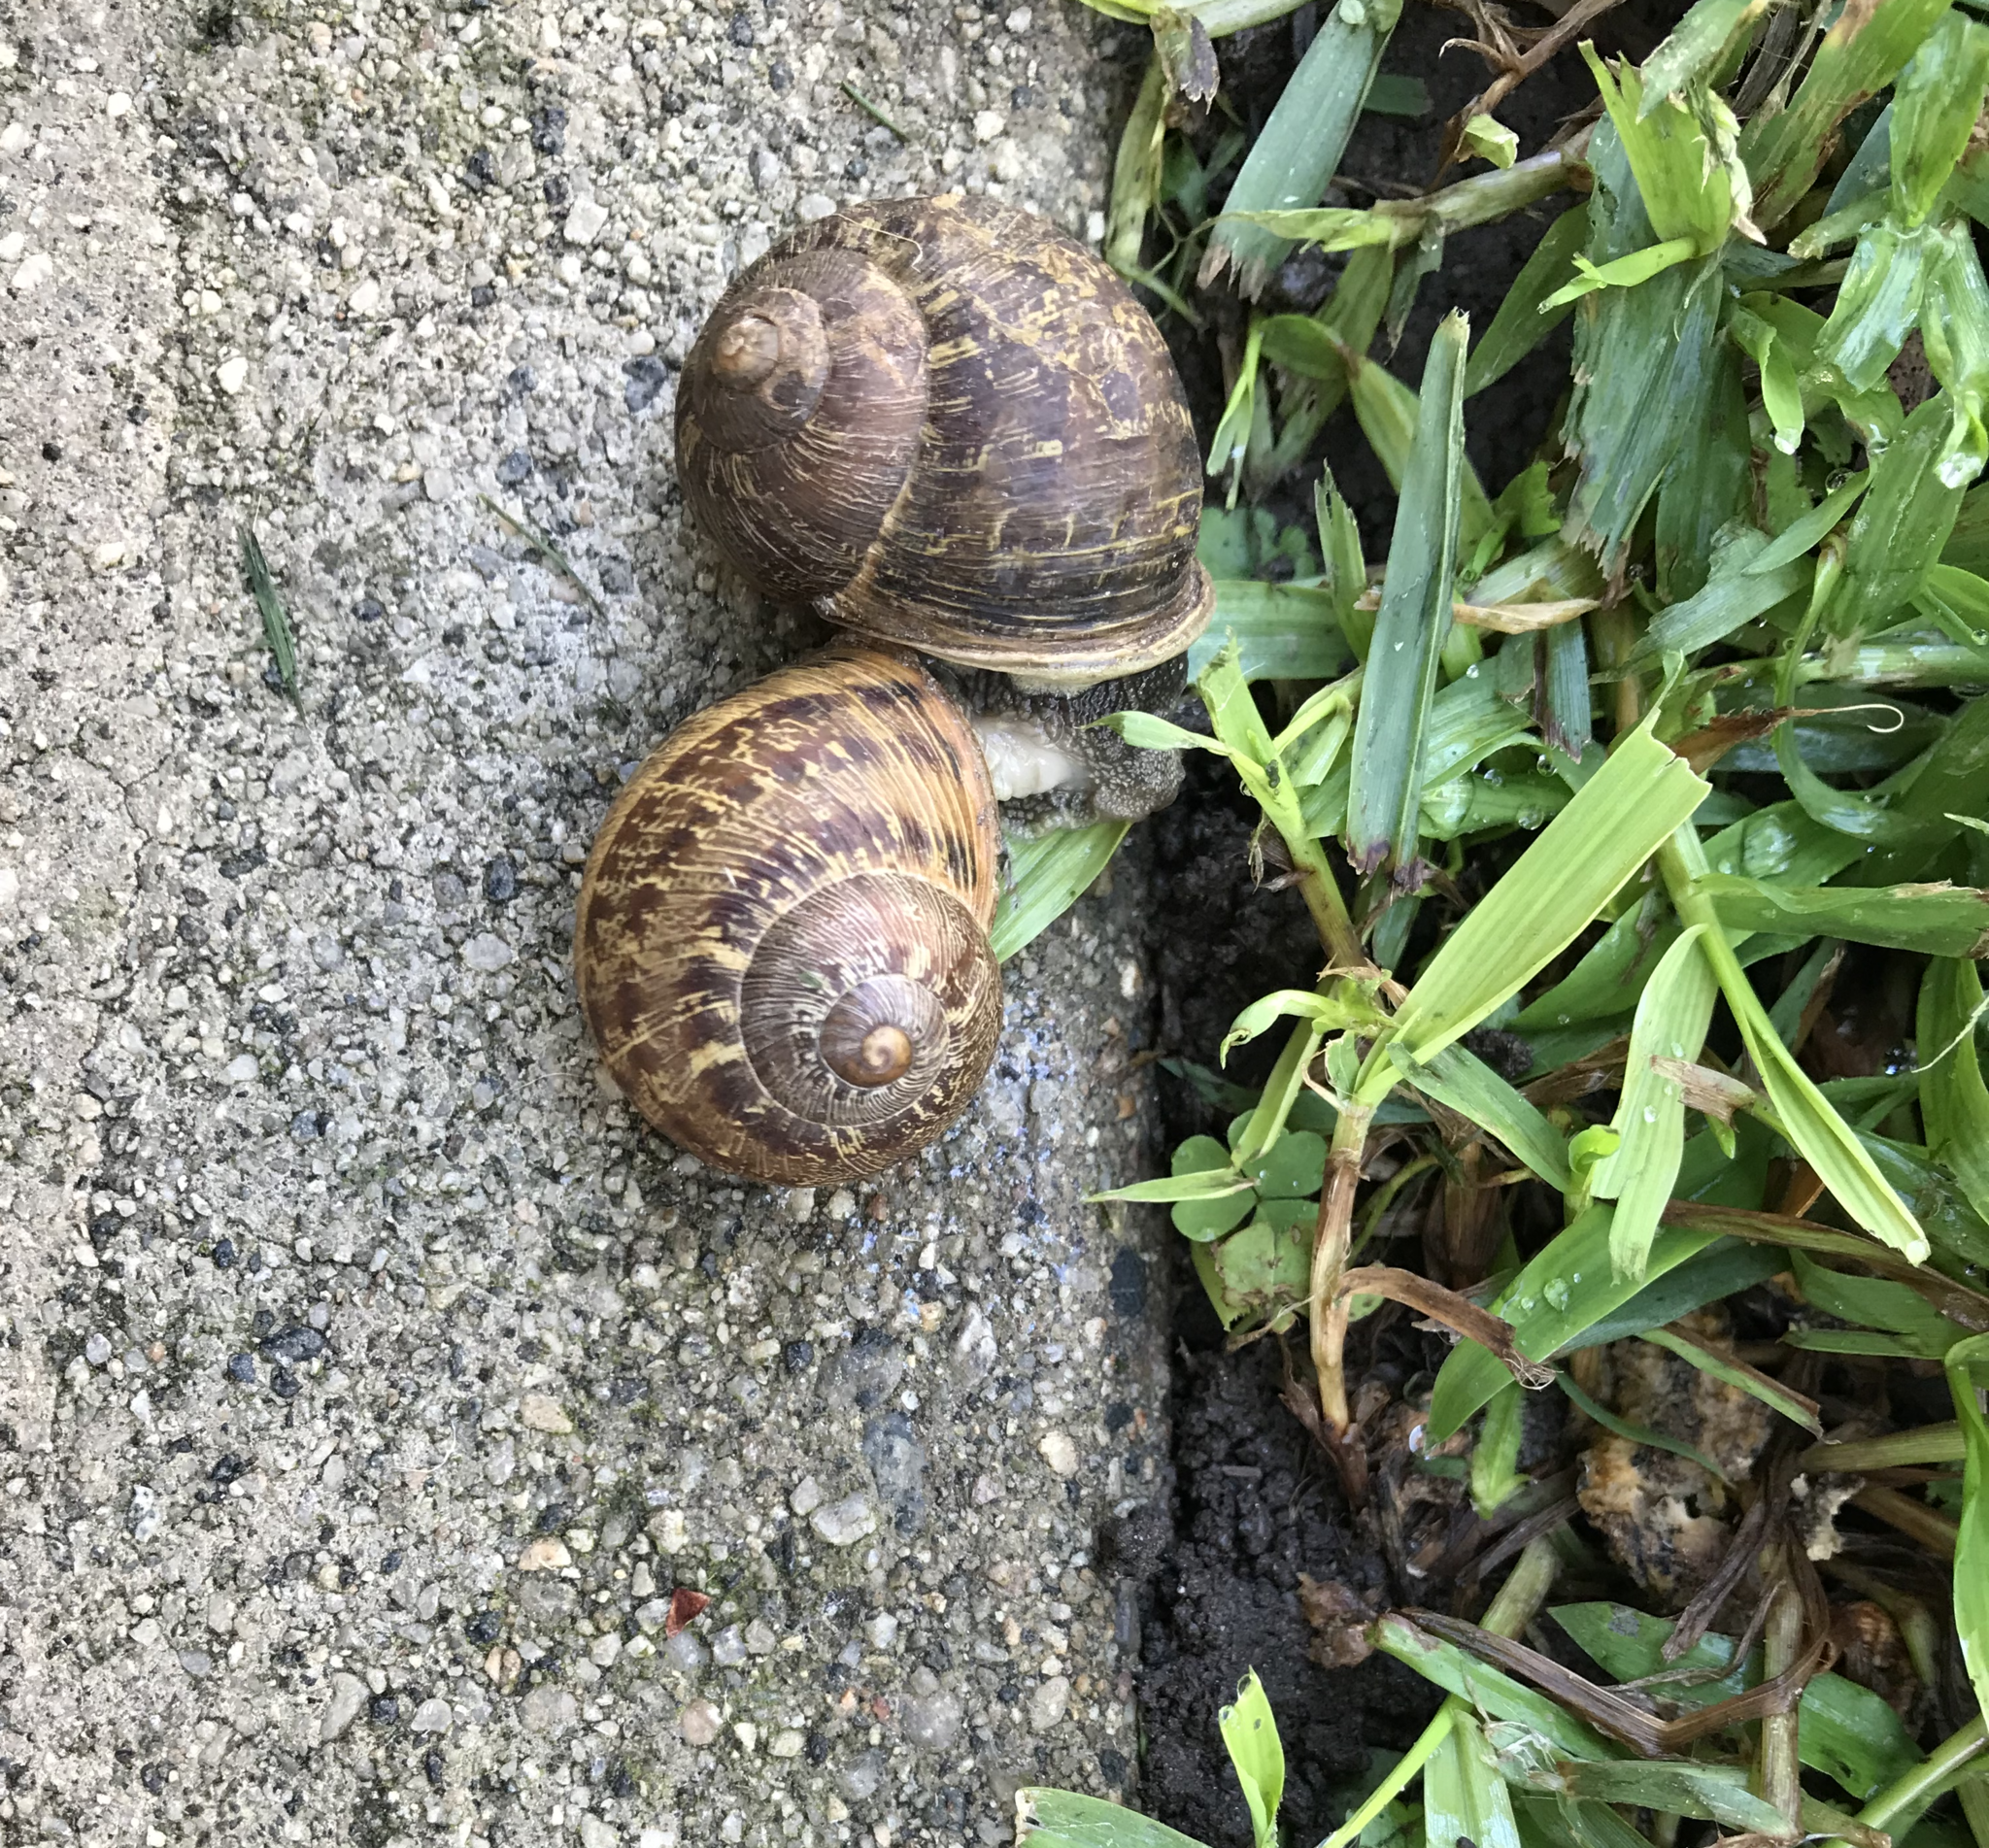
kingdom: Animalia
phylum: Mollusca
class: Gastropoda
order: Stylommatophora
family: Helicidae
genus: Cornu
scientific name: Cornu aspersum
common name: Brown garden snail
